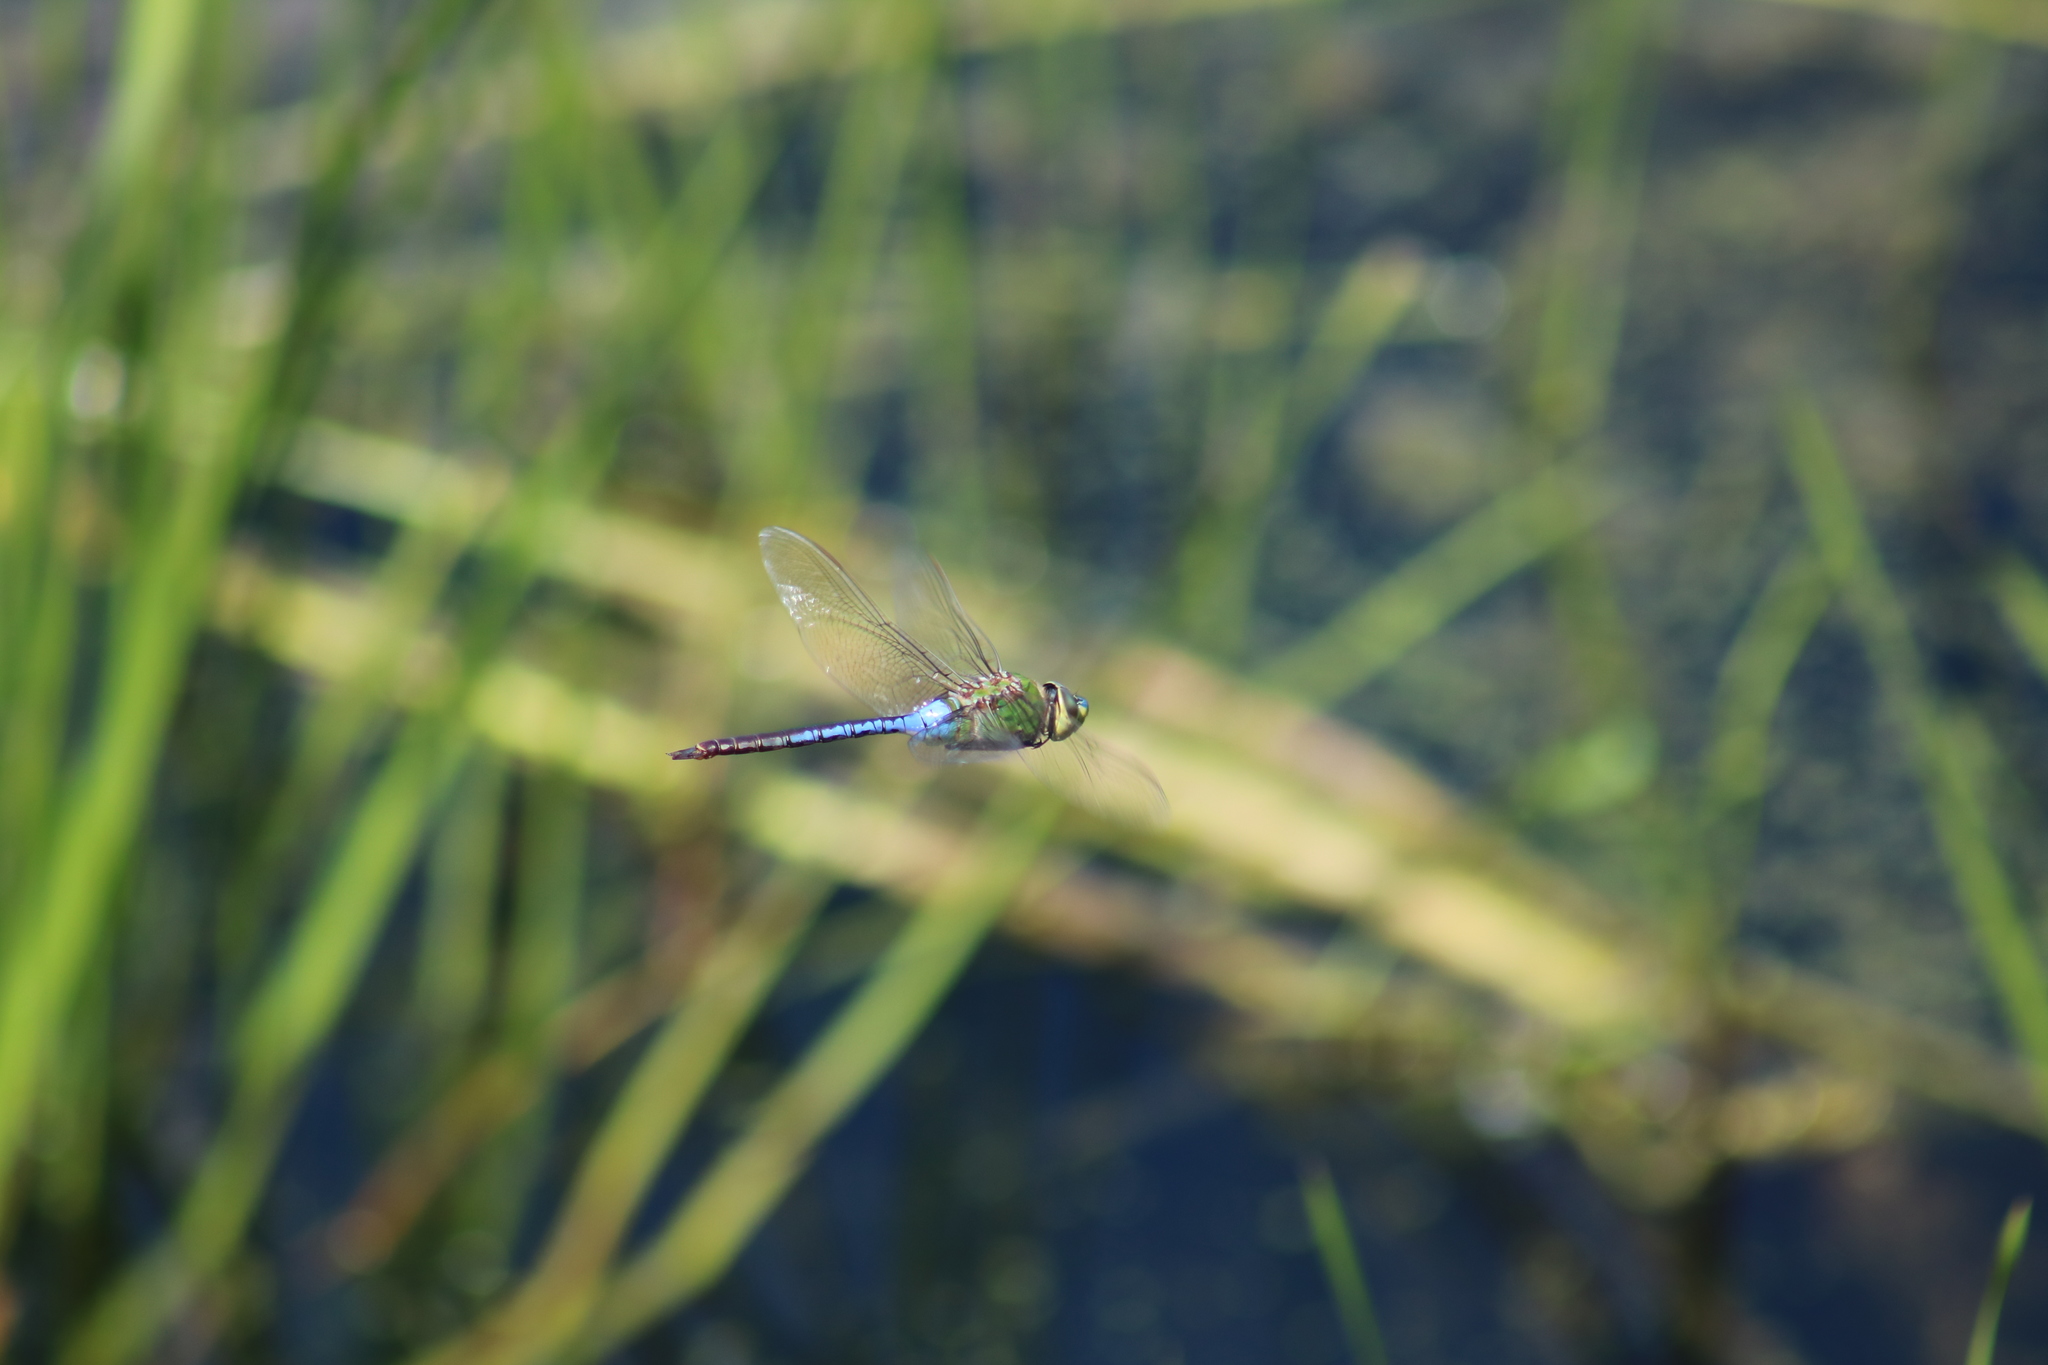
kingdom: Animalia
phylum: Arthropoda
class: Insecta
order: Odonata
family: Aeshnidae
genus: Anax
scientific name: Anax junius
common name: Common green darner
